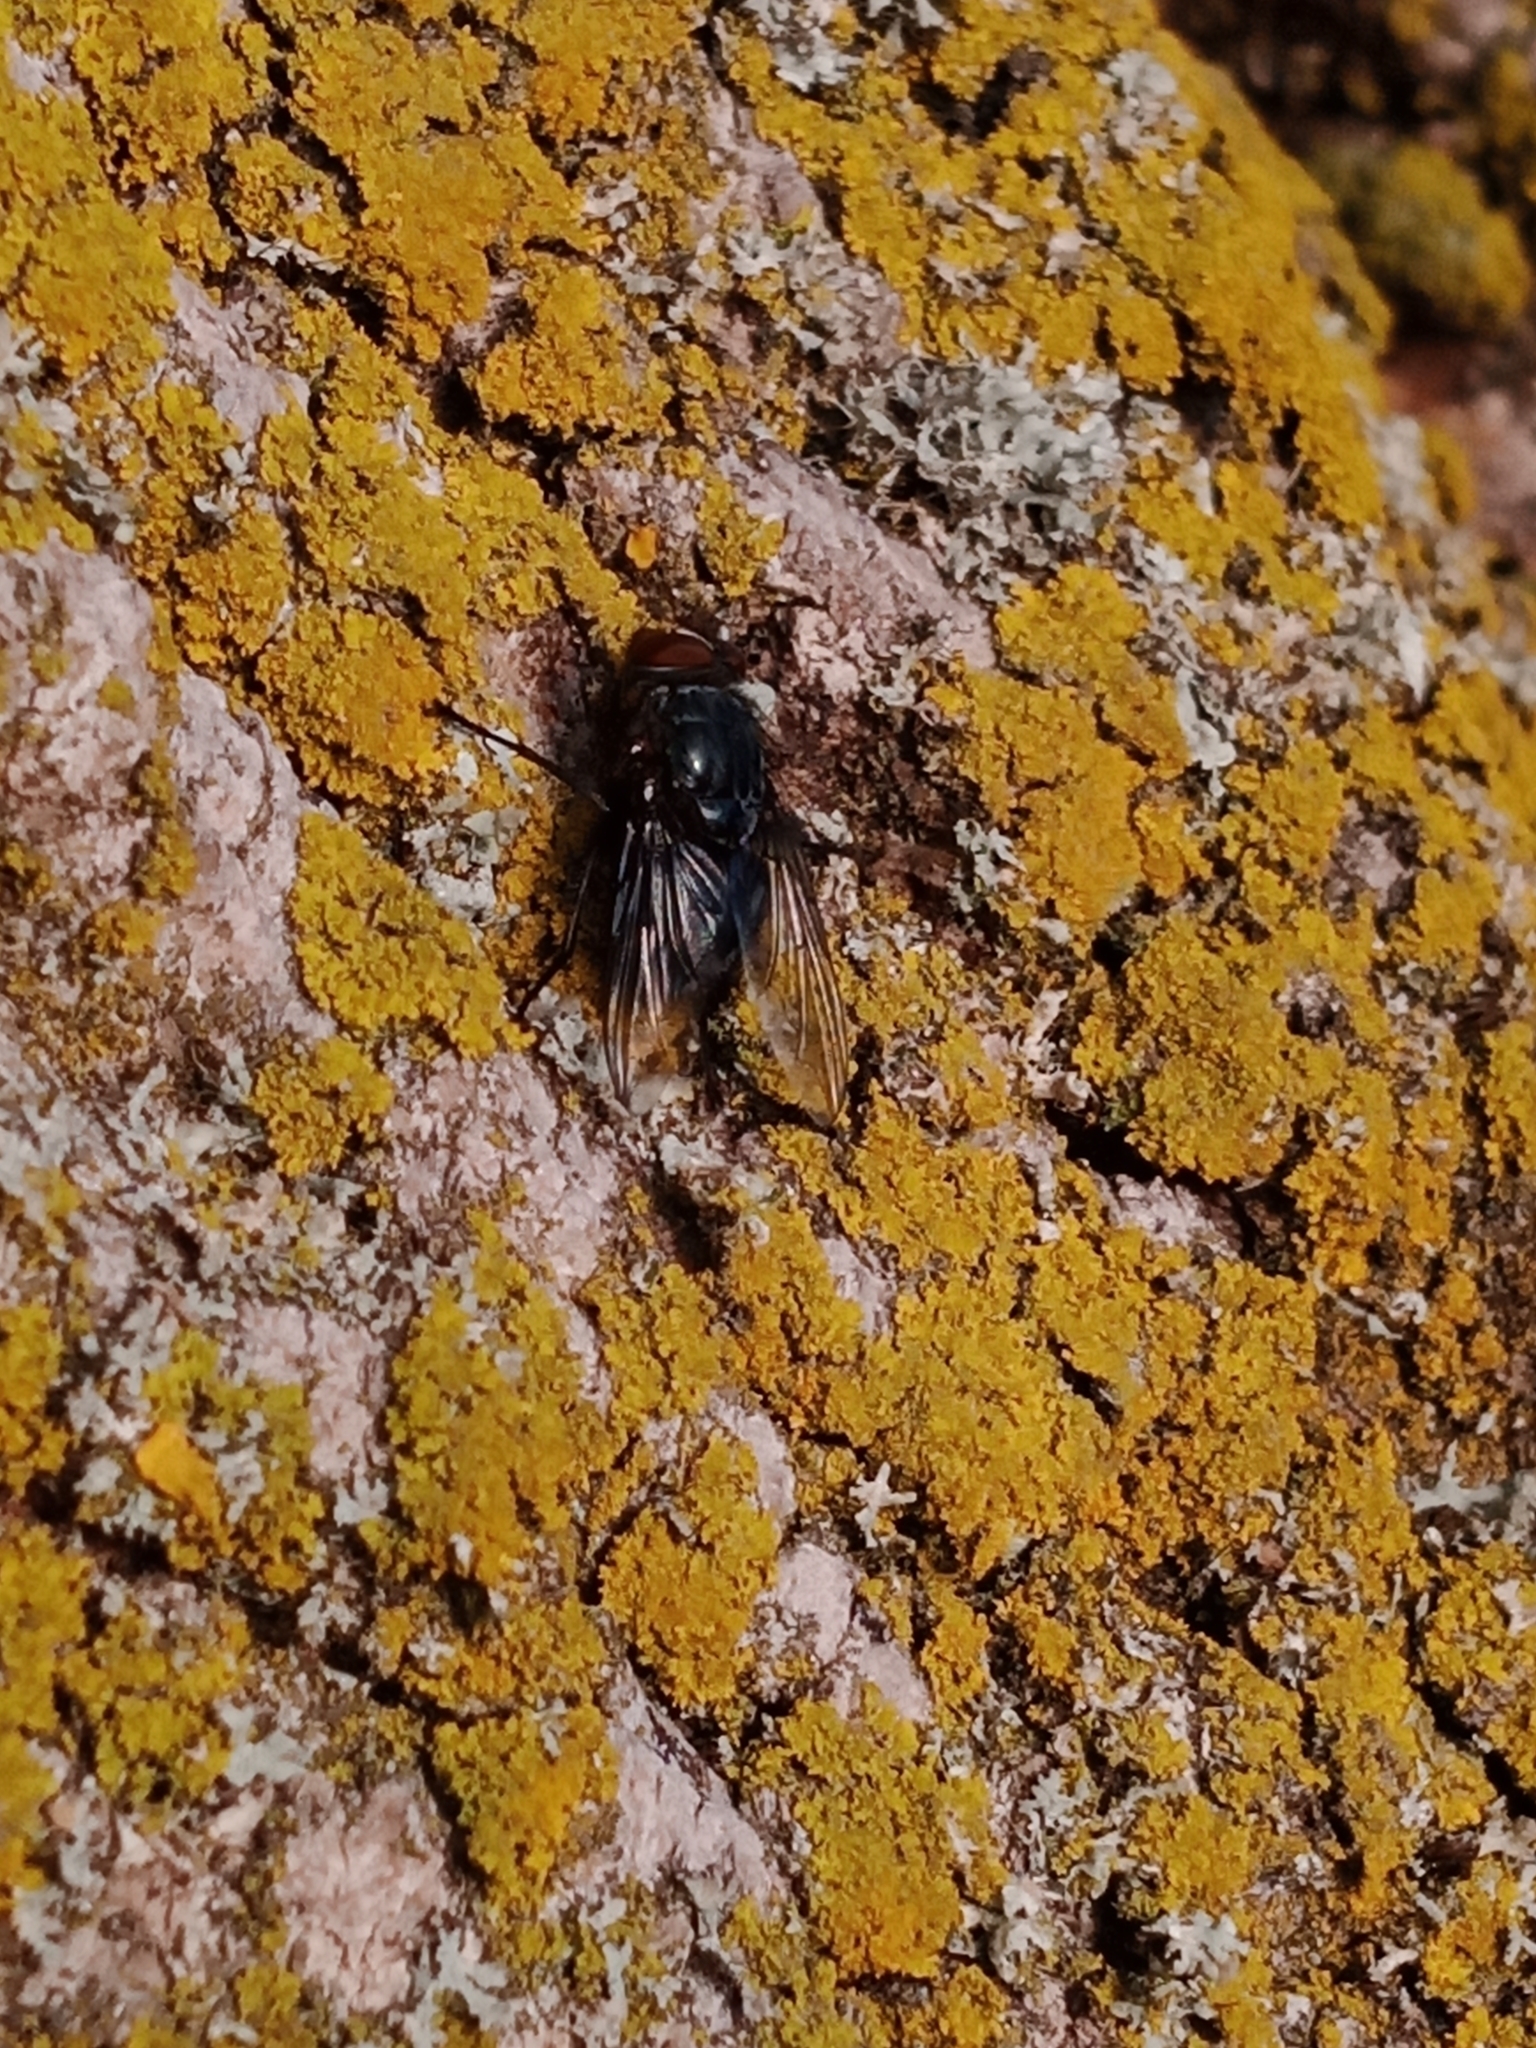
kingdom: Animalia
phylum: Arthropoda
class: Insecta
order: Diptera
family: Calliphoridae
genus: Calliphora
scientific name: Calliphora vicina
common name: Common blow flie
